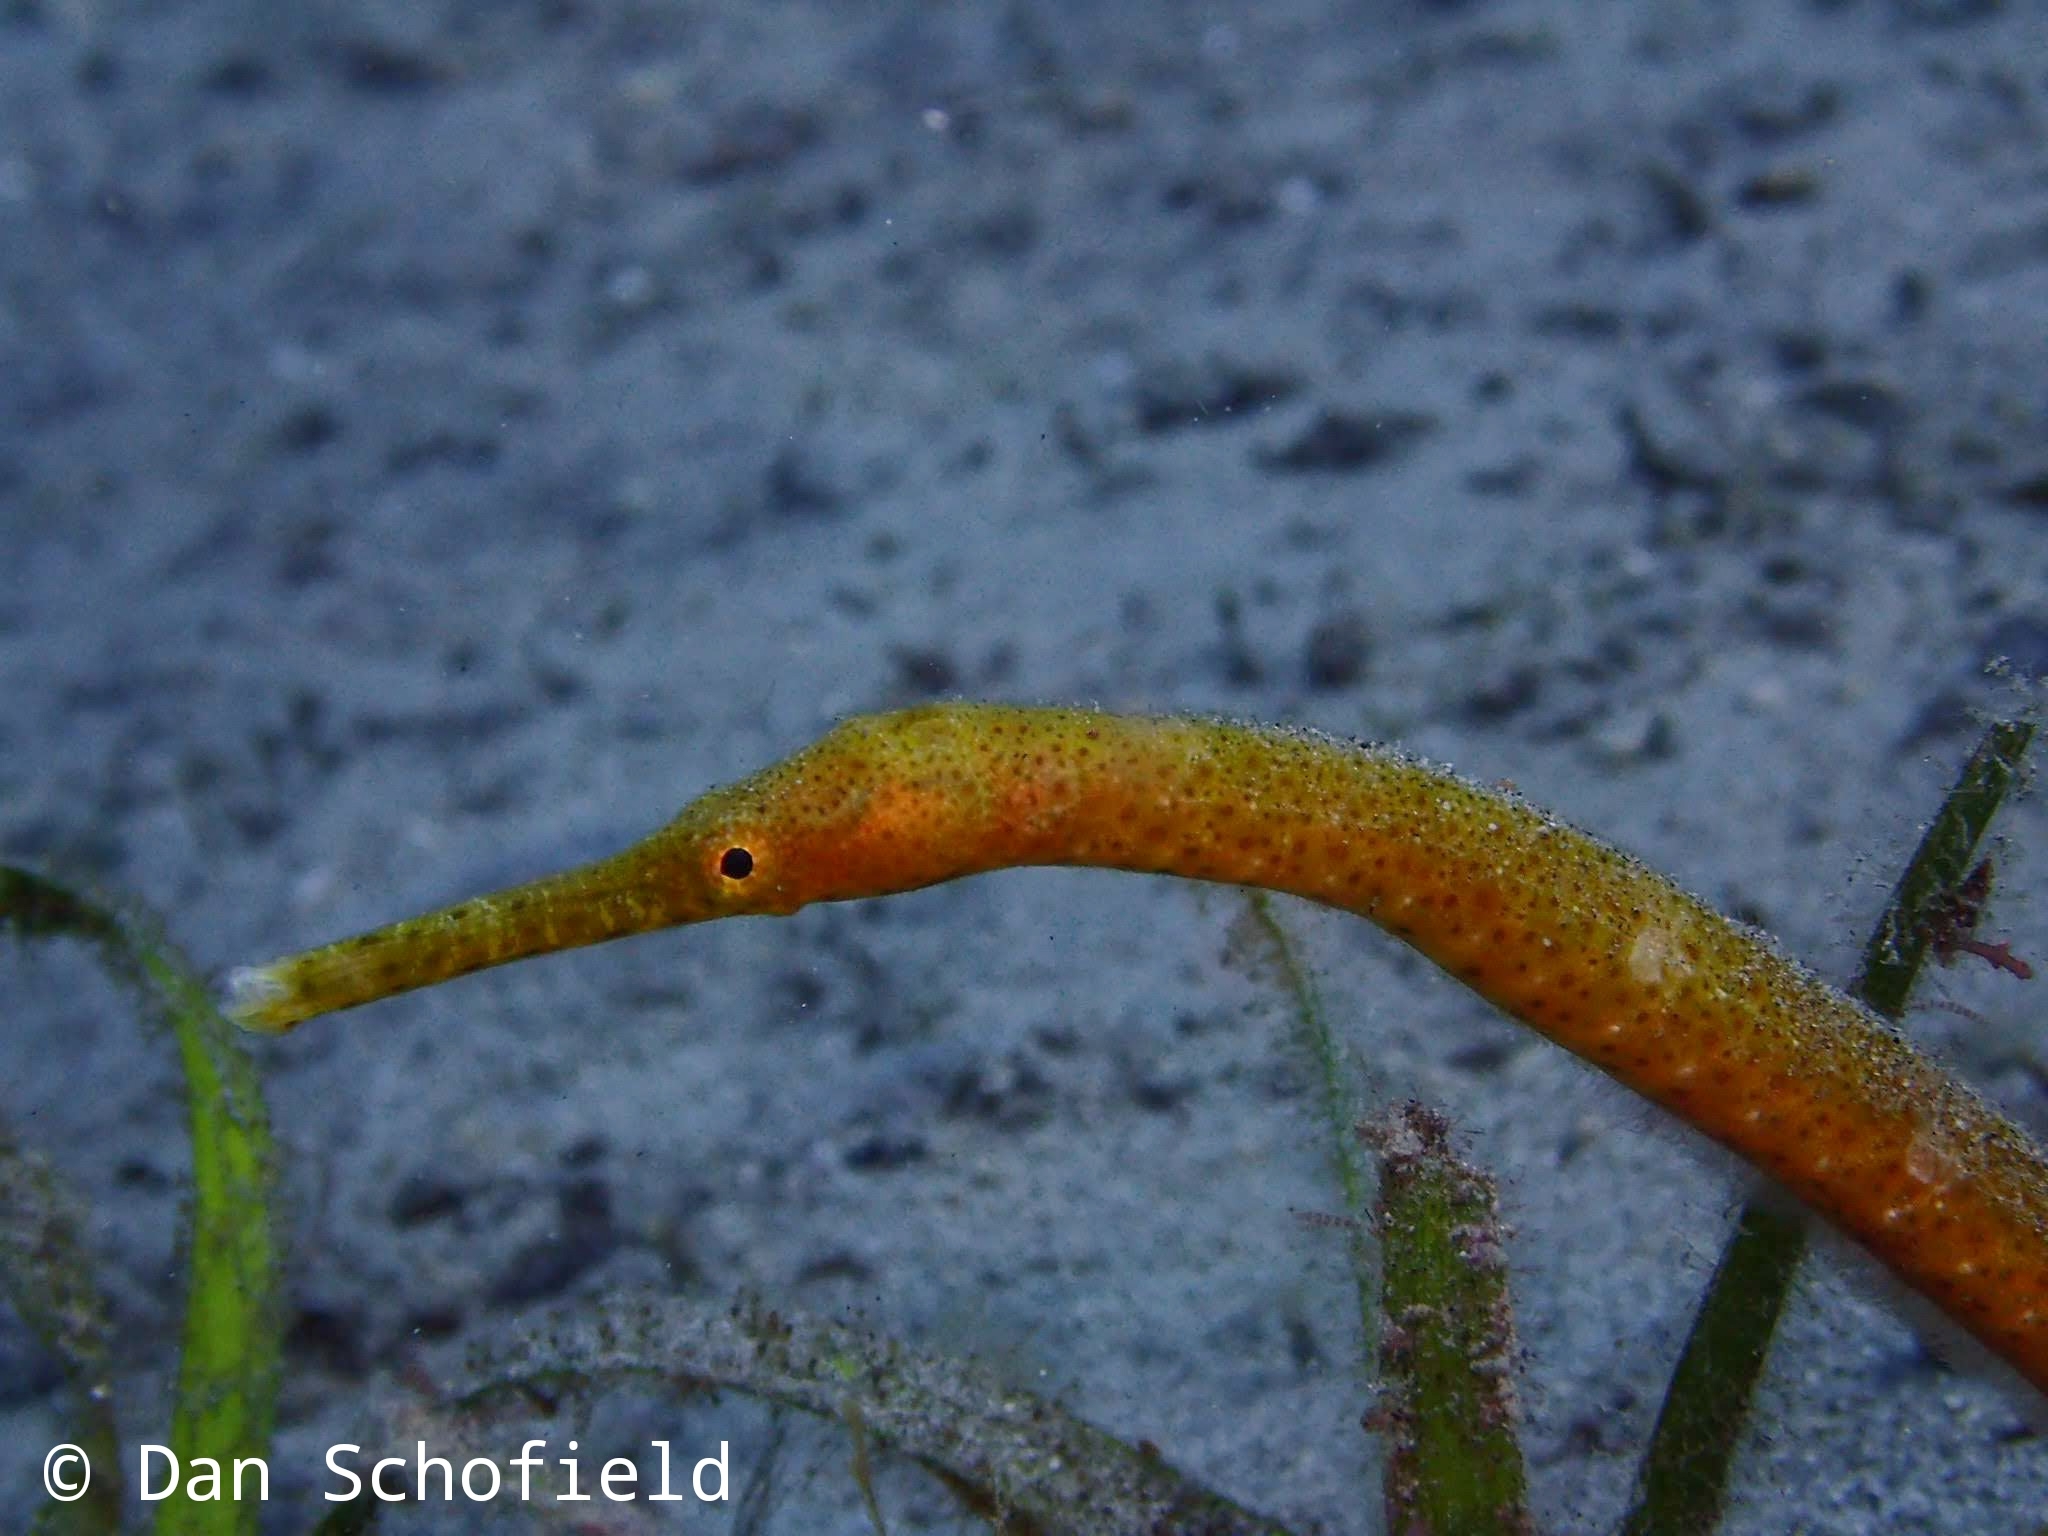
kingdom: Animalia
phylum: Chordata
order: Syngnathiformes
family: Syngnathidae
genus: Trachyrhamphus
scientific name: Trachyrhamphus bicoarctatus
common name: Double-ended pipefish
